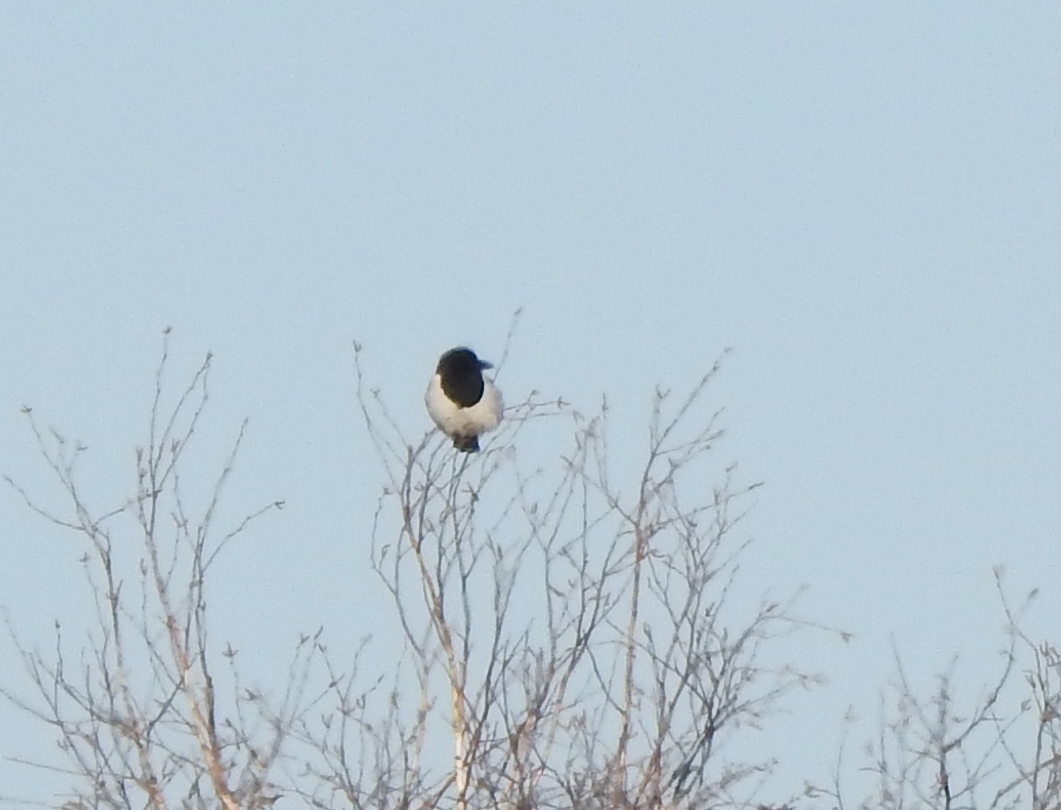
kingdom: Animalia
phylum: Chordata
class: Aves
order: Passeriformes
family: Corvidae
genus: Pica
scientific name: Pica pica
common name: Eurasian magpie
